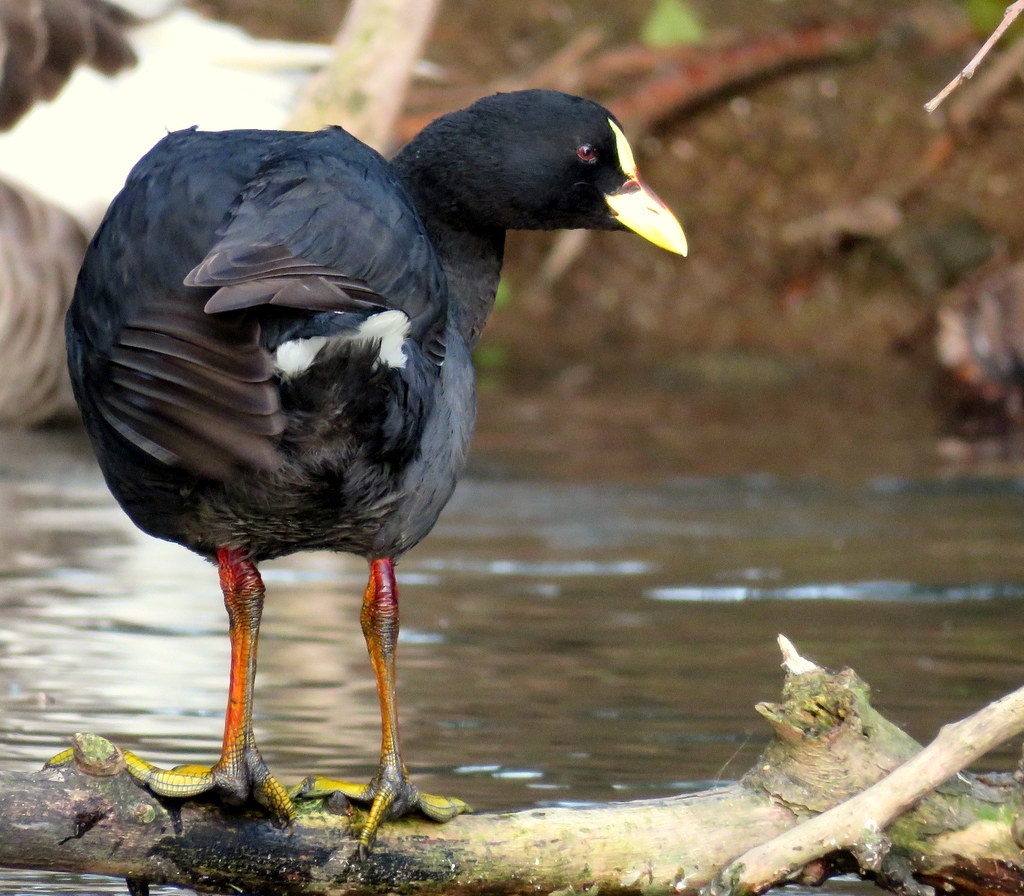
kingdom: Animalia
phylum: Chordata
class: Aves
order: Gruiformes
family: Rallidae
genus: Fulica
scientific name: Fulica armillata
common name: Red-gartered coot
